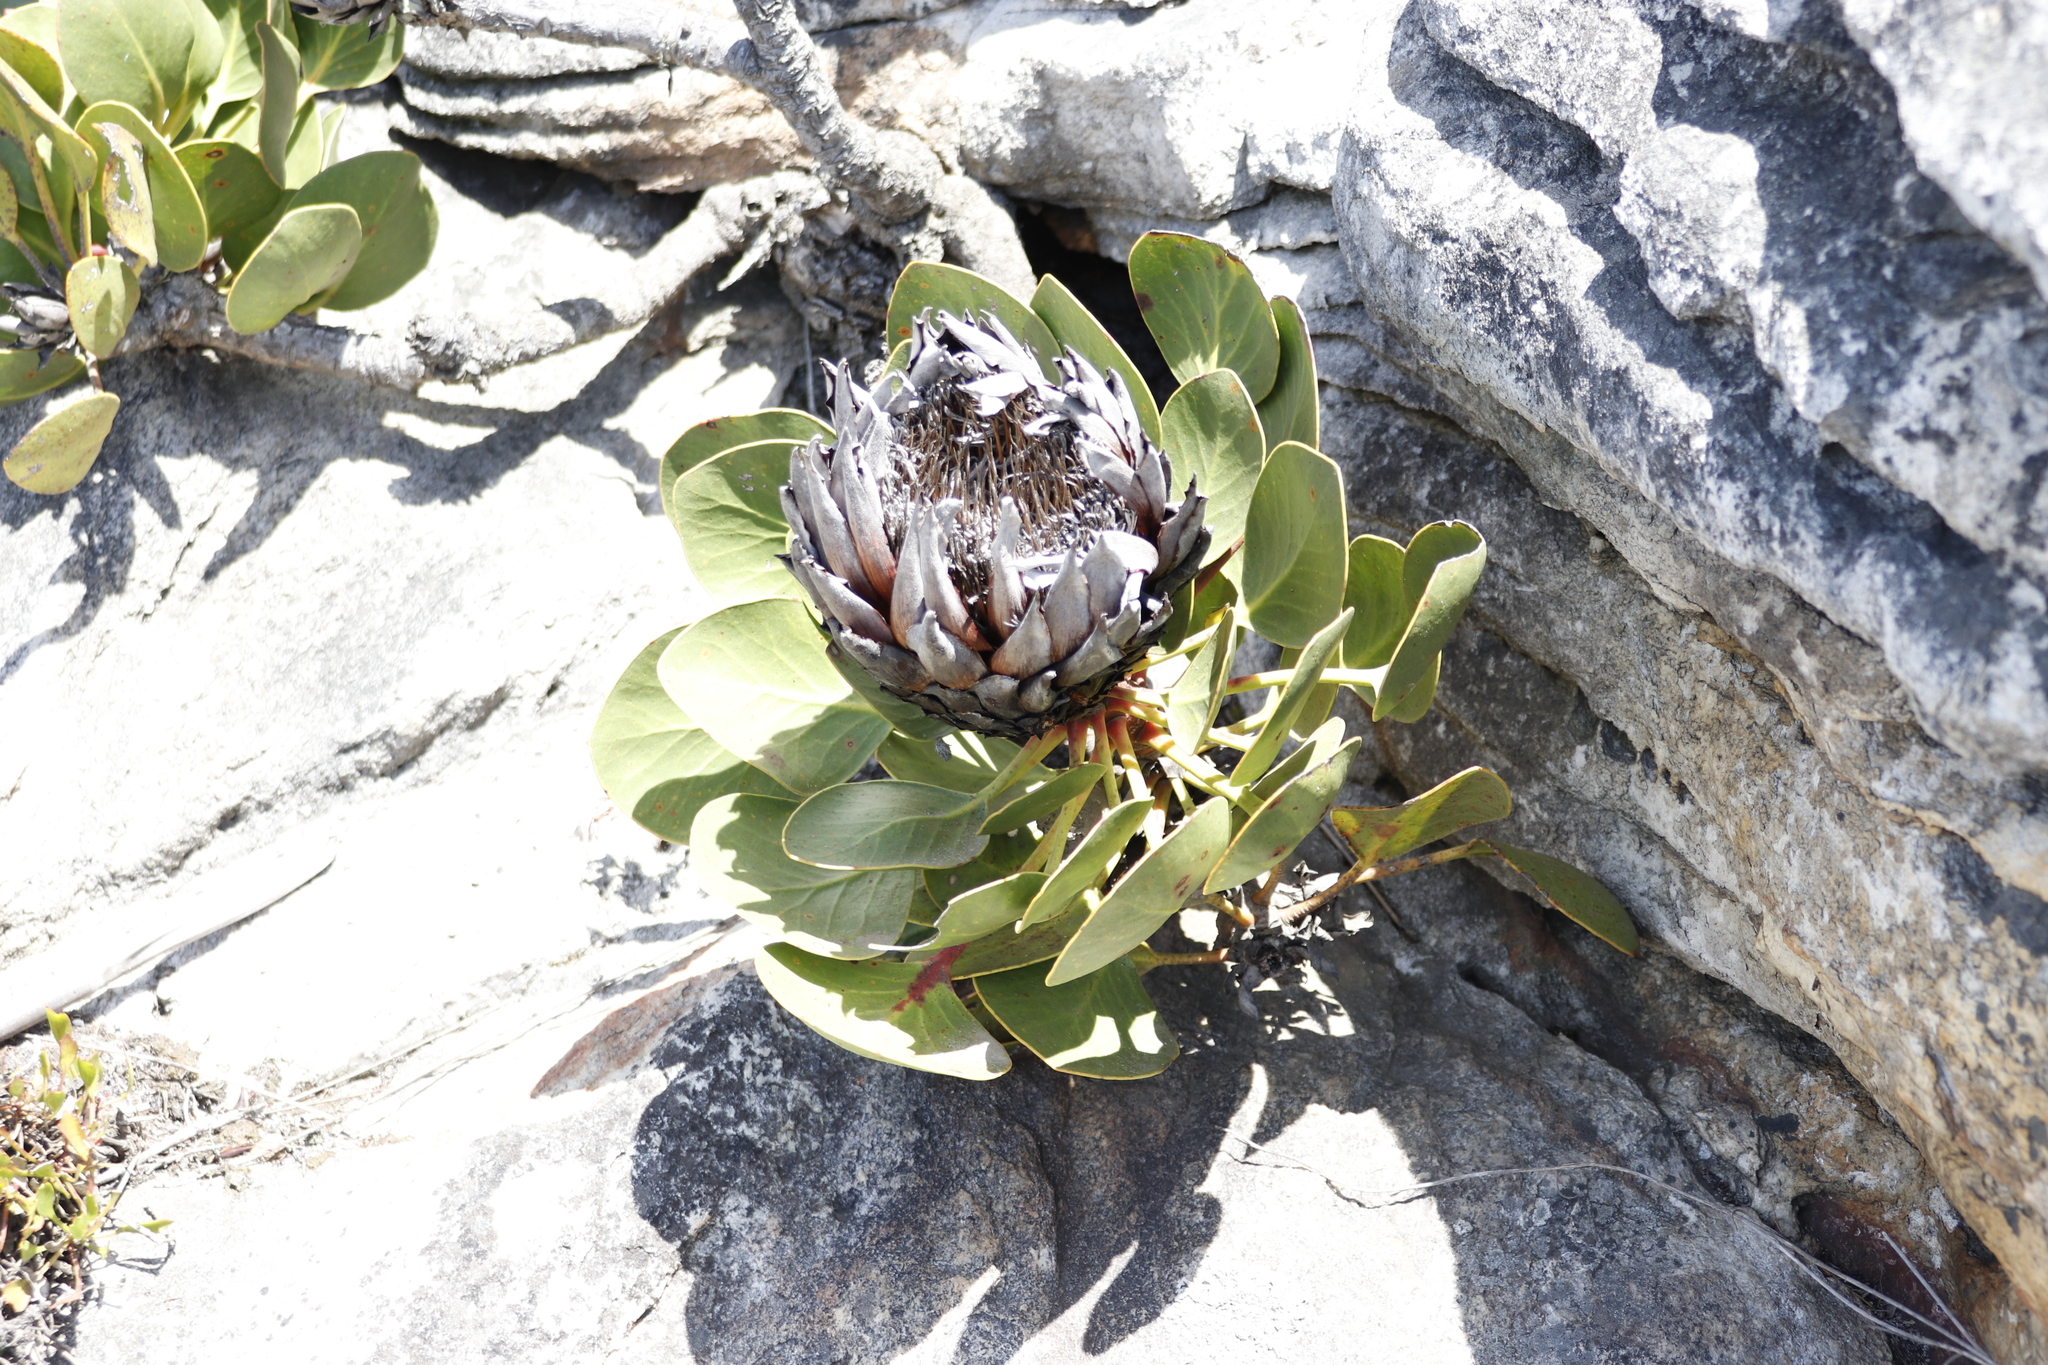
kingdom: Plantae
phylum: Tracheophyta
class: Magnoliopsida
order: Proteales
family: Proteaceae
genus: Protea
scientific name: Protea cynaroides
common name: King protea
